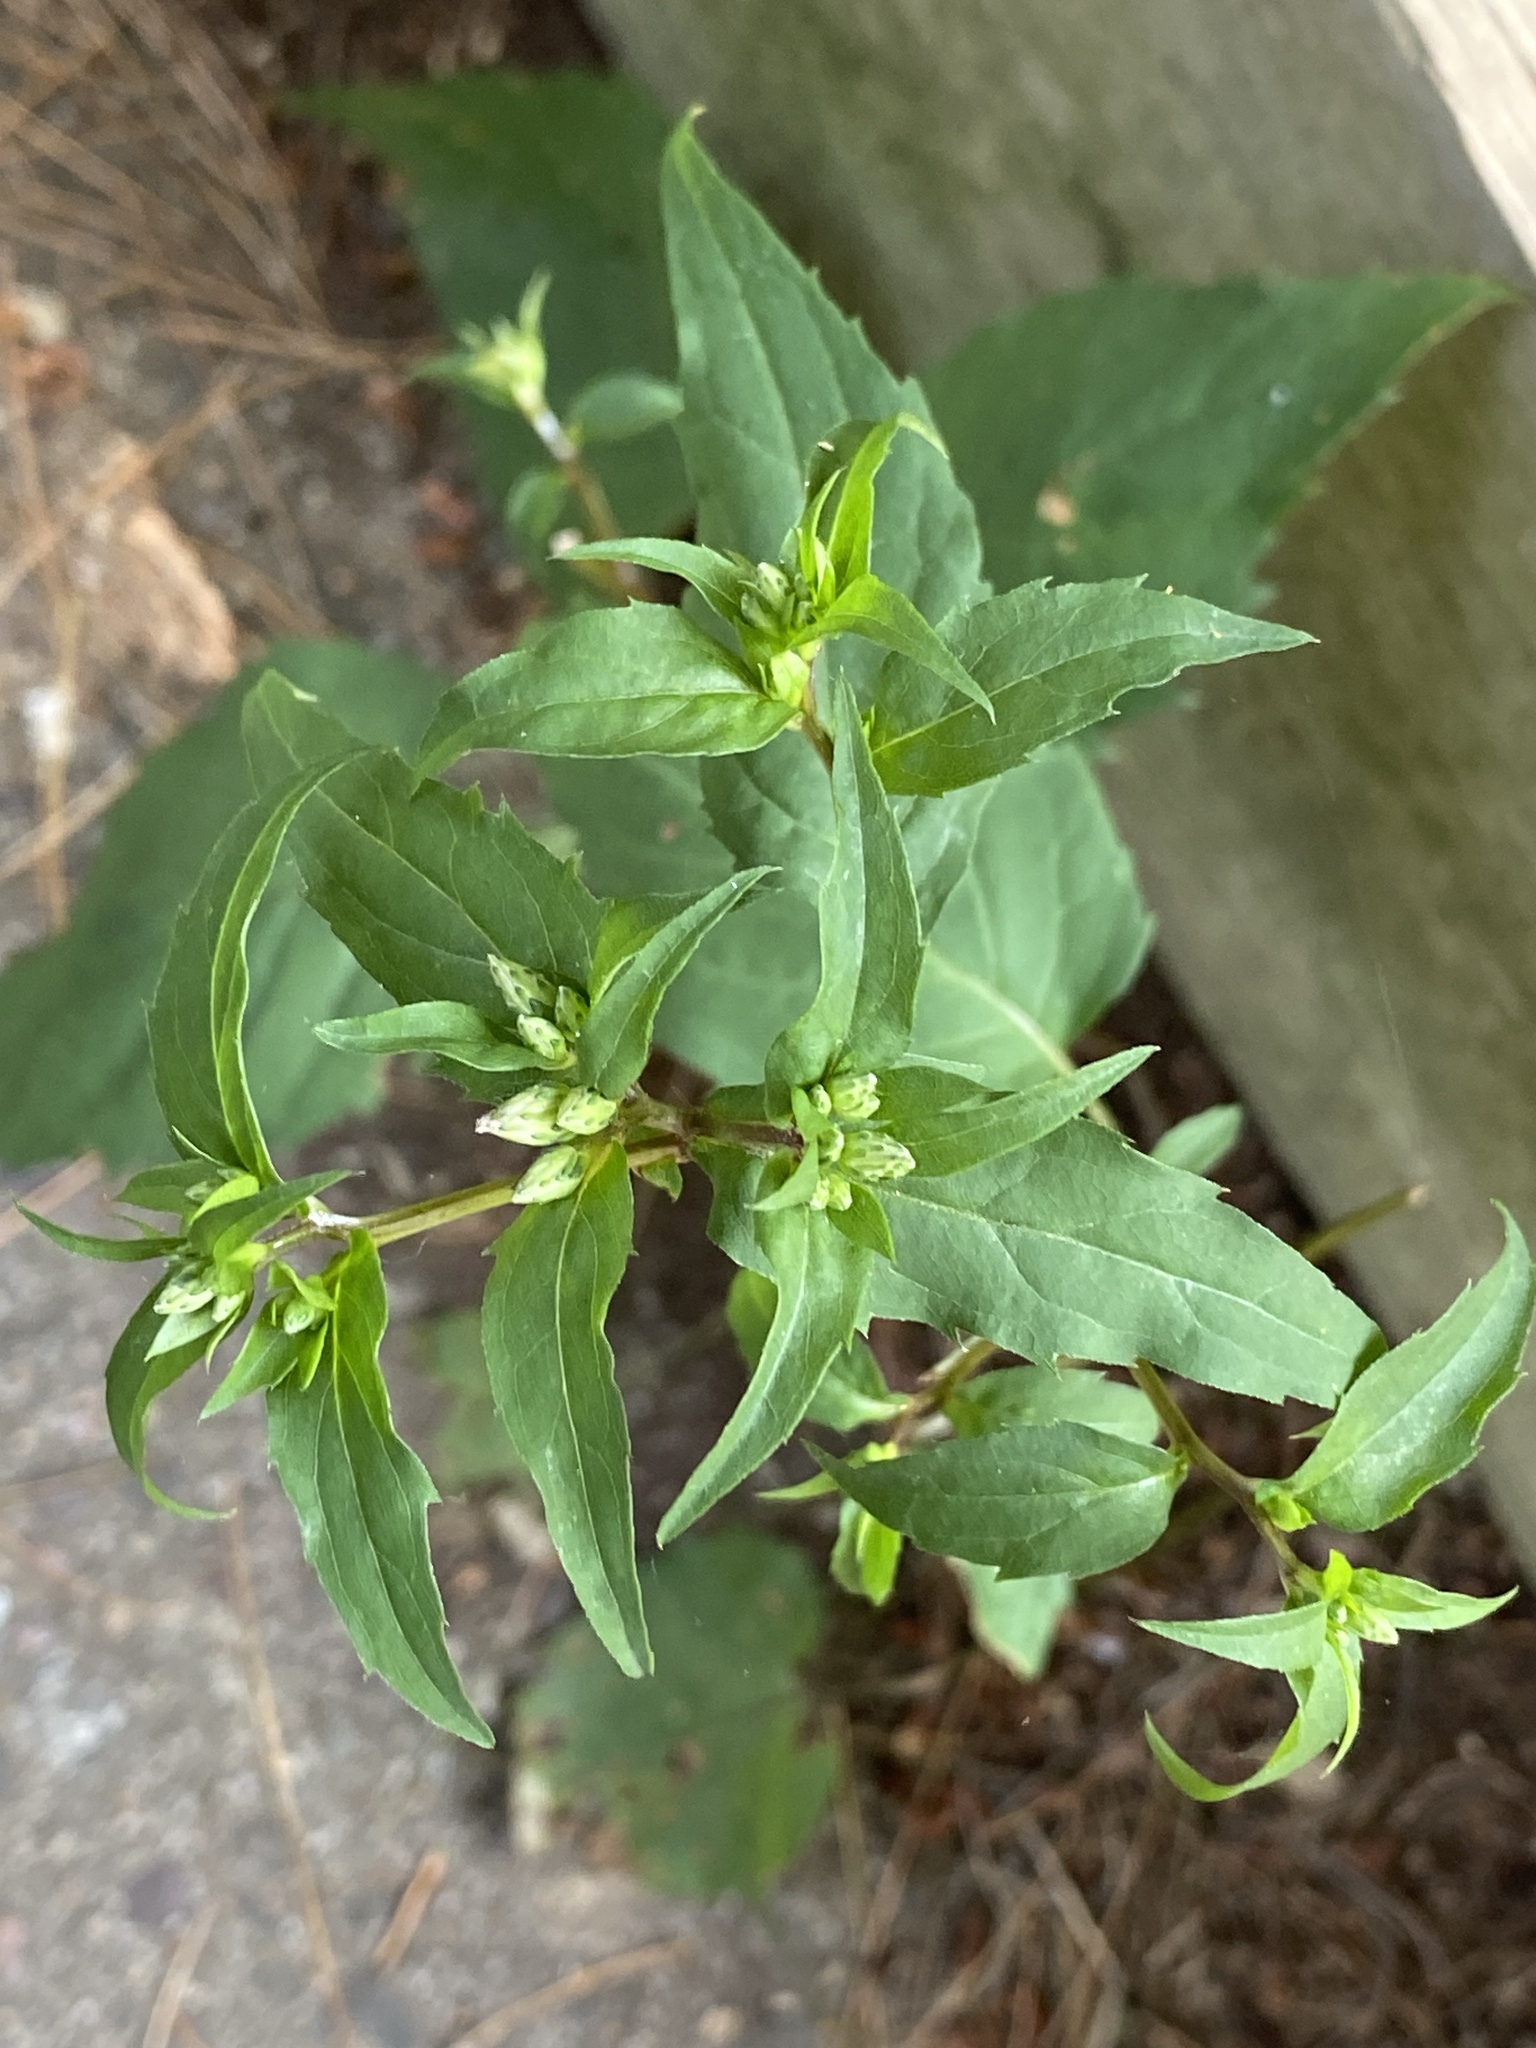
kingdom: Plantae
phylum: Tracheophyta
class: Magnoliopsida
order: Asterales
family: Asteraceae
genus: Eurybia
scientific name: Eurybia divaricata
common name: White wood aster
